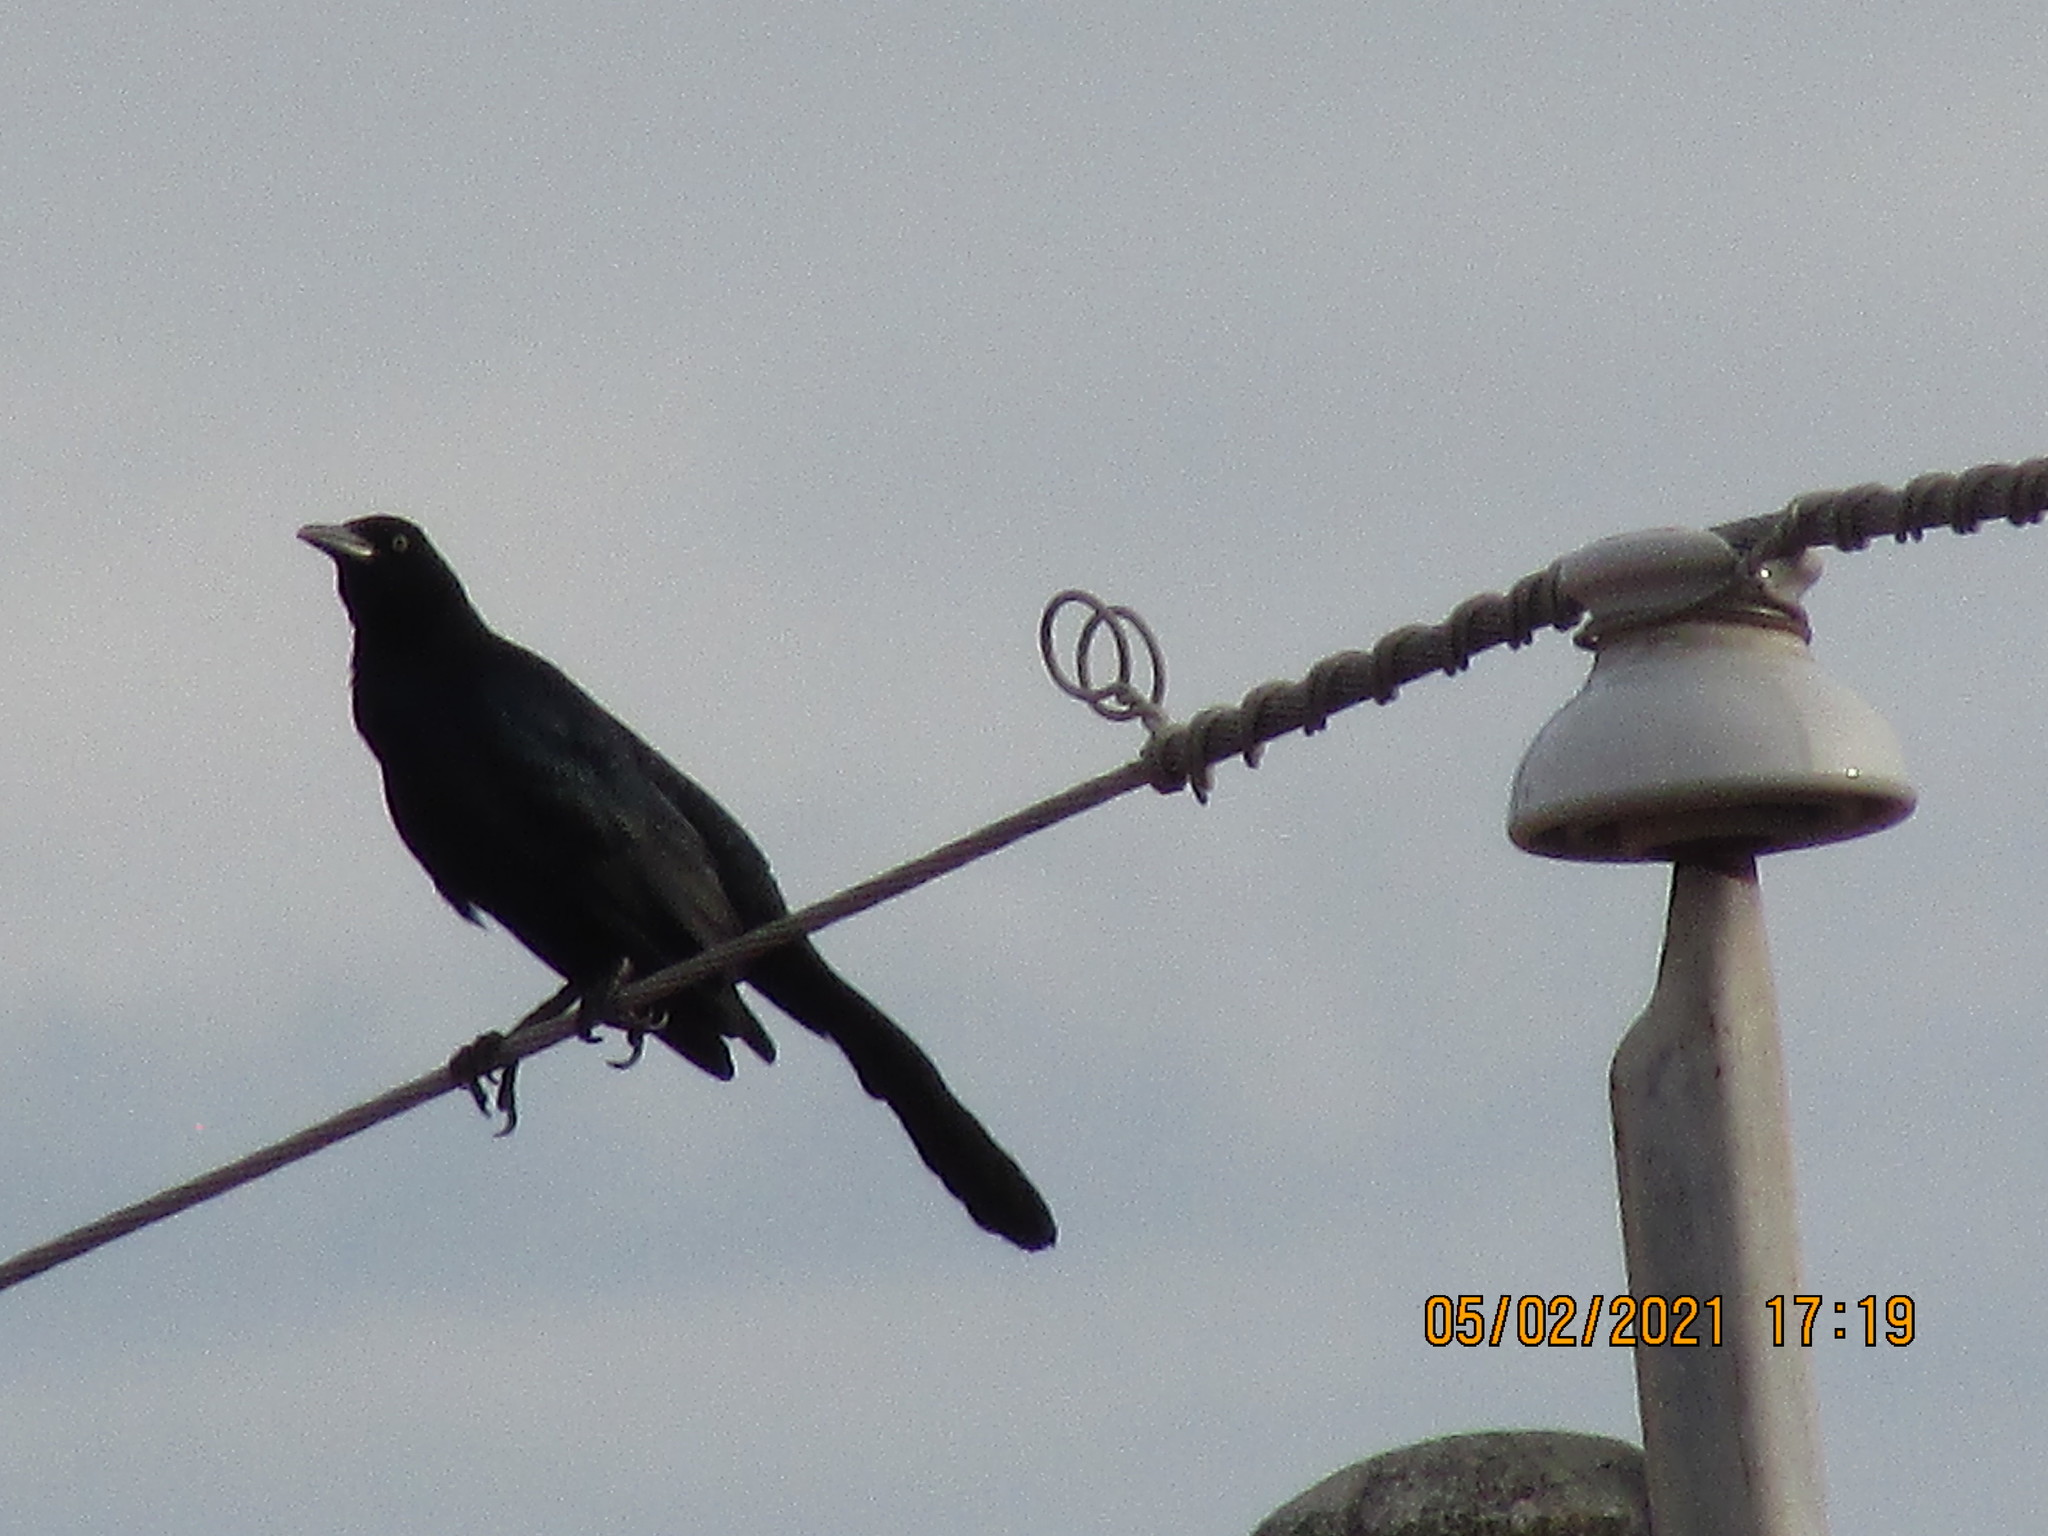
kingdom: Animalia
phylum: Chordata
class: Aves
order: Passeriformes
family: Icteridae
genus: Quiscalus
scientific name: Quiscalus mexicanus
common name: Great-tailed grackle
